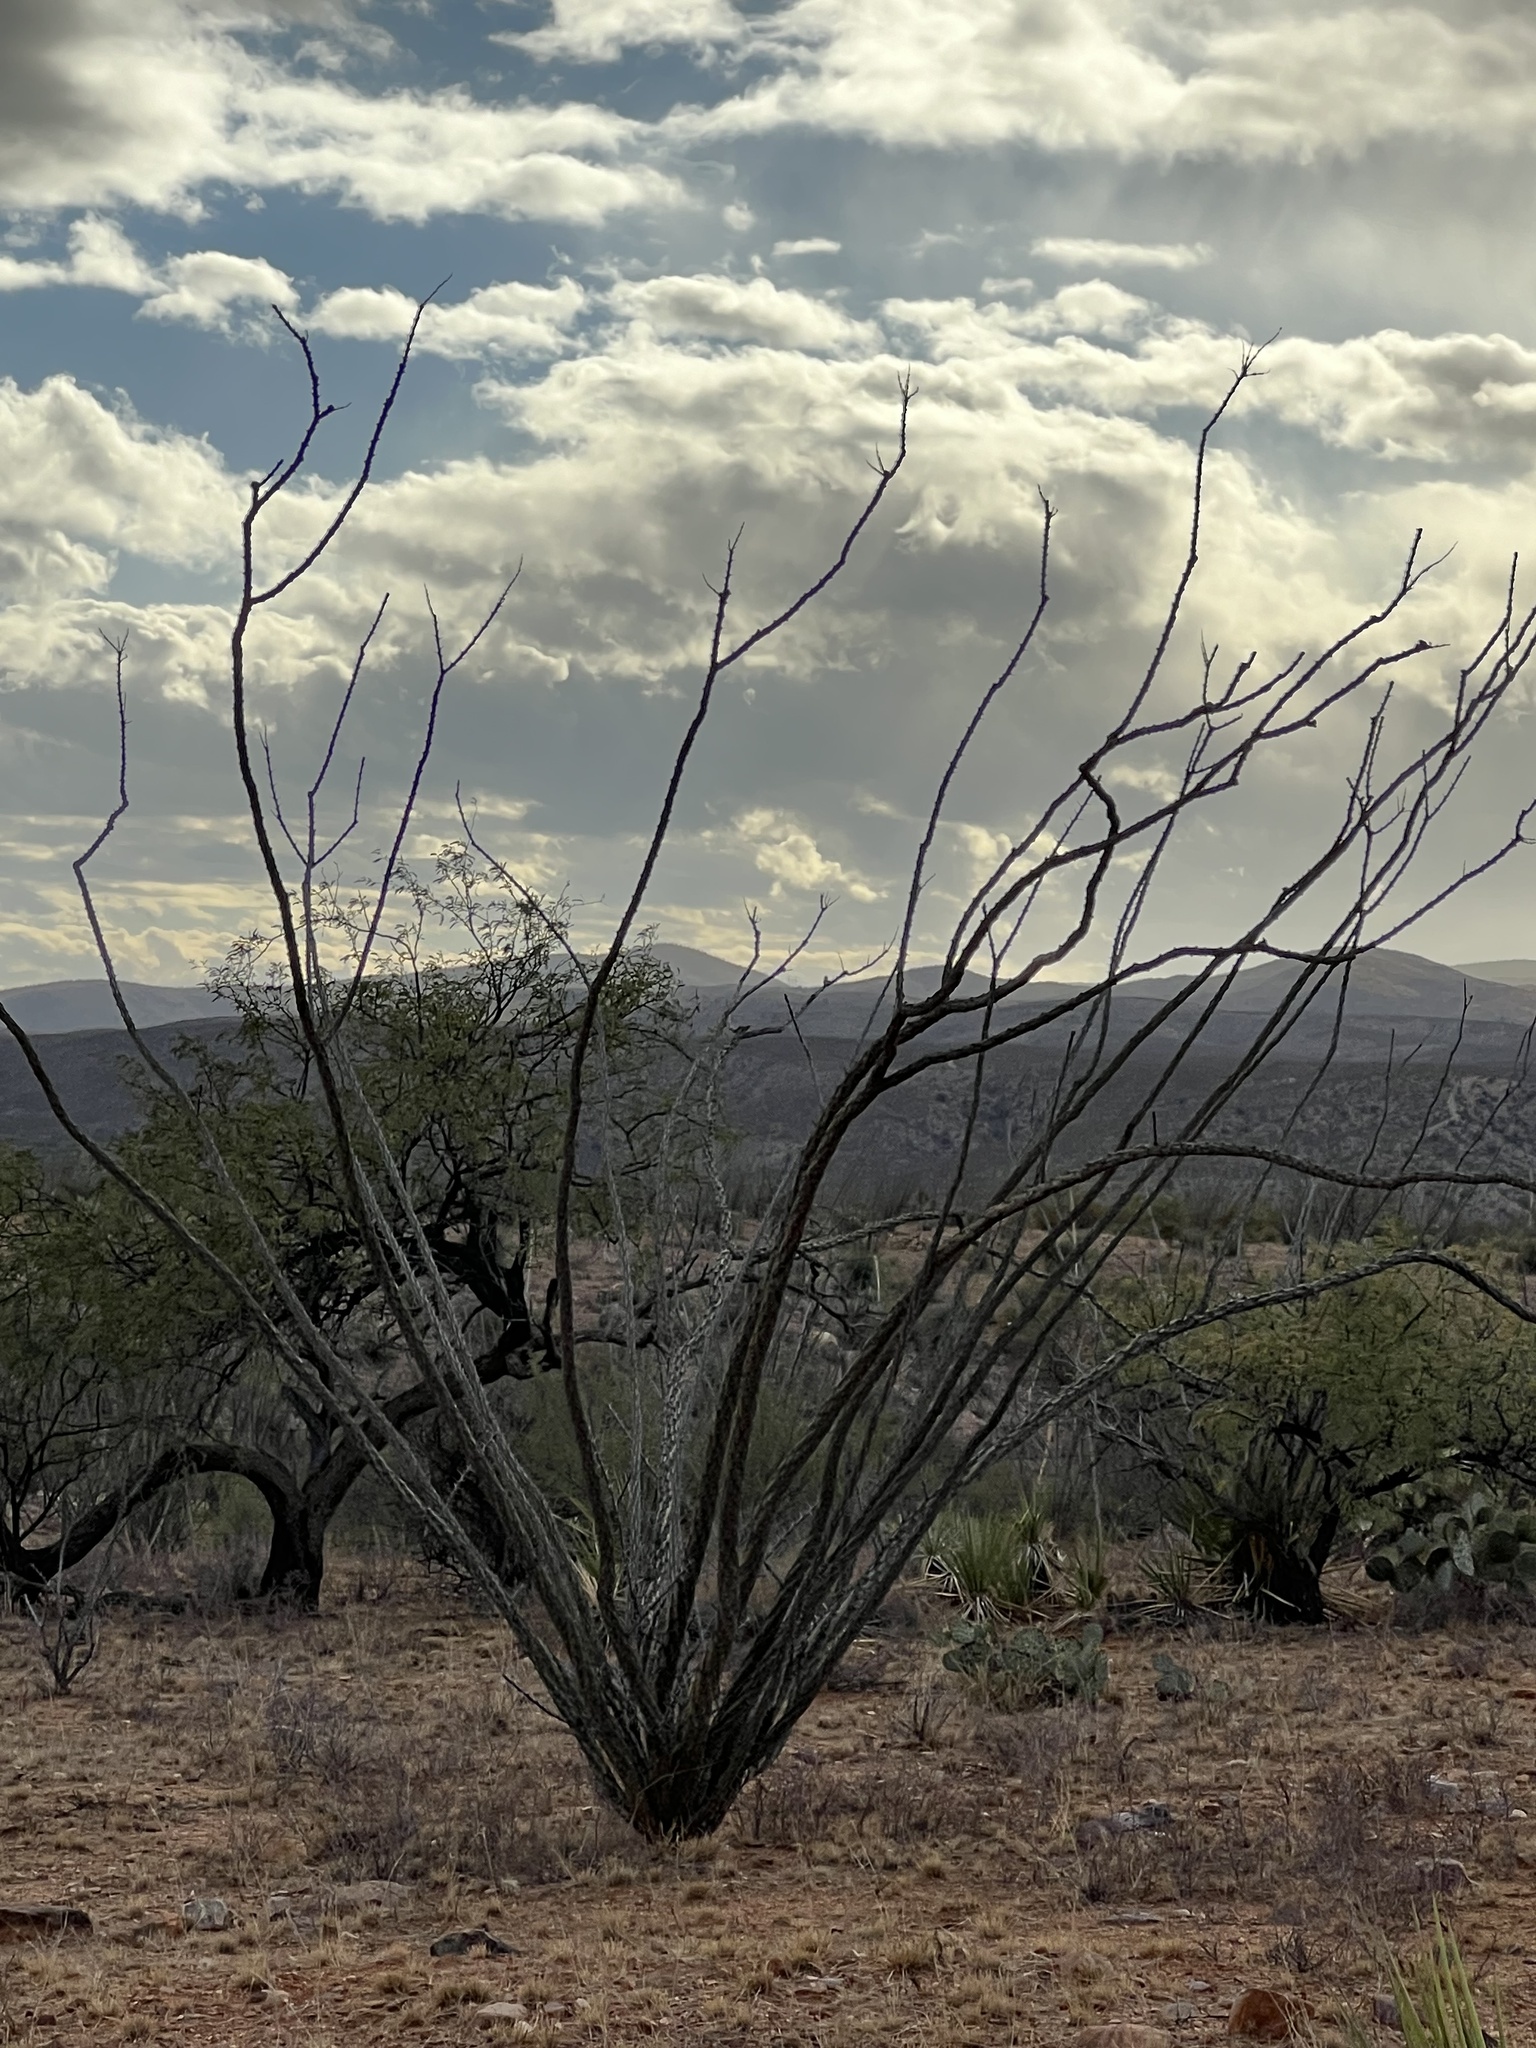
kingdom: Plantae
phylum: Tracheophyta
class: Magnoliopsida
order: Ericales
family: Fouquieriaceae
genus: Fouquieria
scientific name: Fouquieria splendens
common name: Vine-cactus
